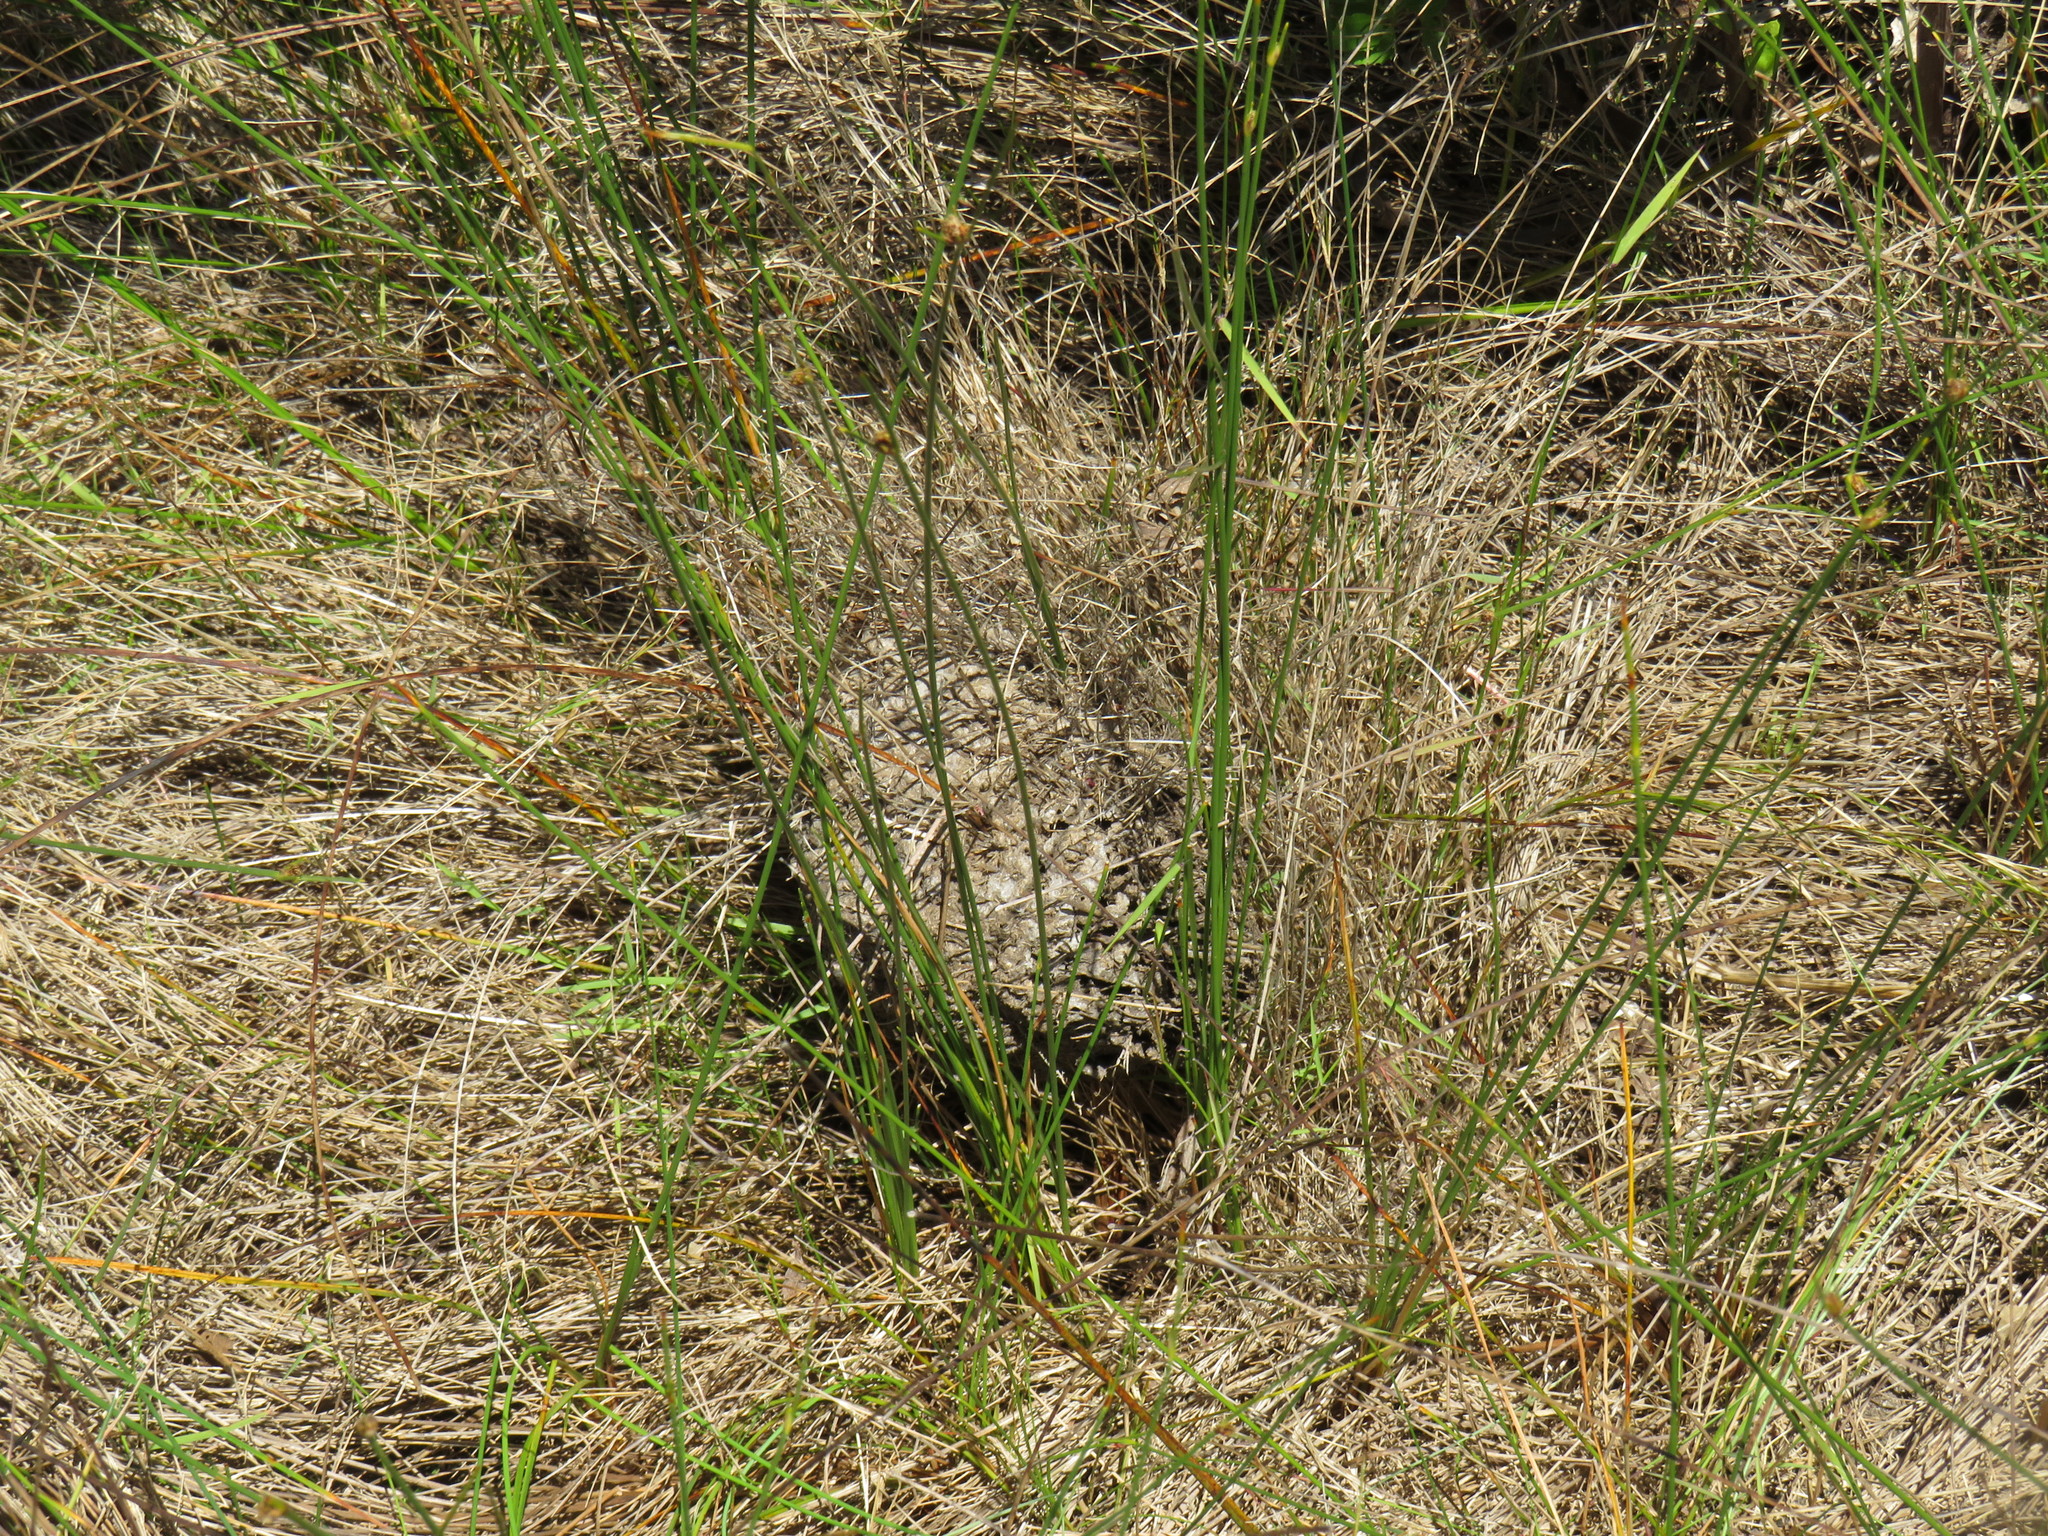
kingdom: Animalia
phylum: Arthropoda
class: Insecta
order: Hymenoptera
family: Formicidae
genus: Crematogaster
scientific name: Crematogaster peringueyi
